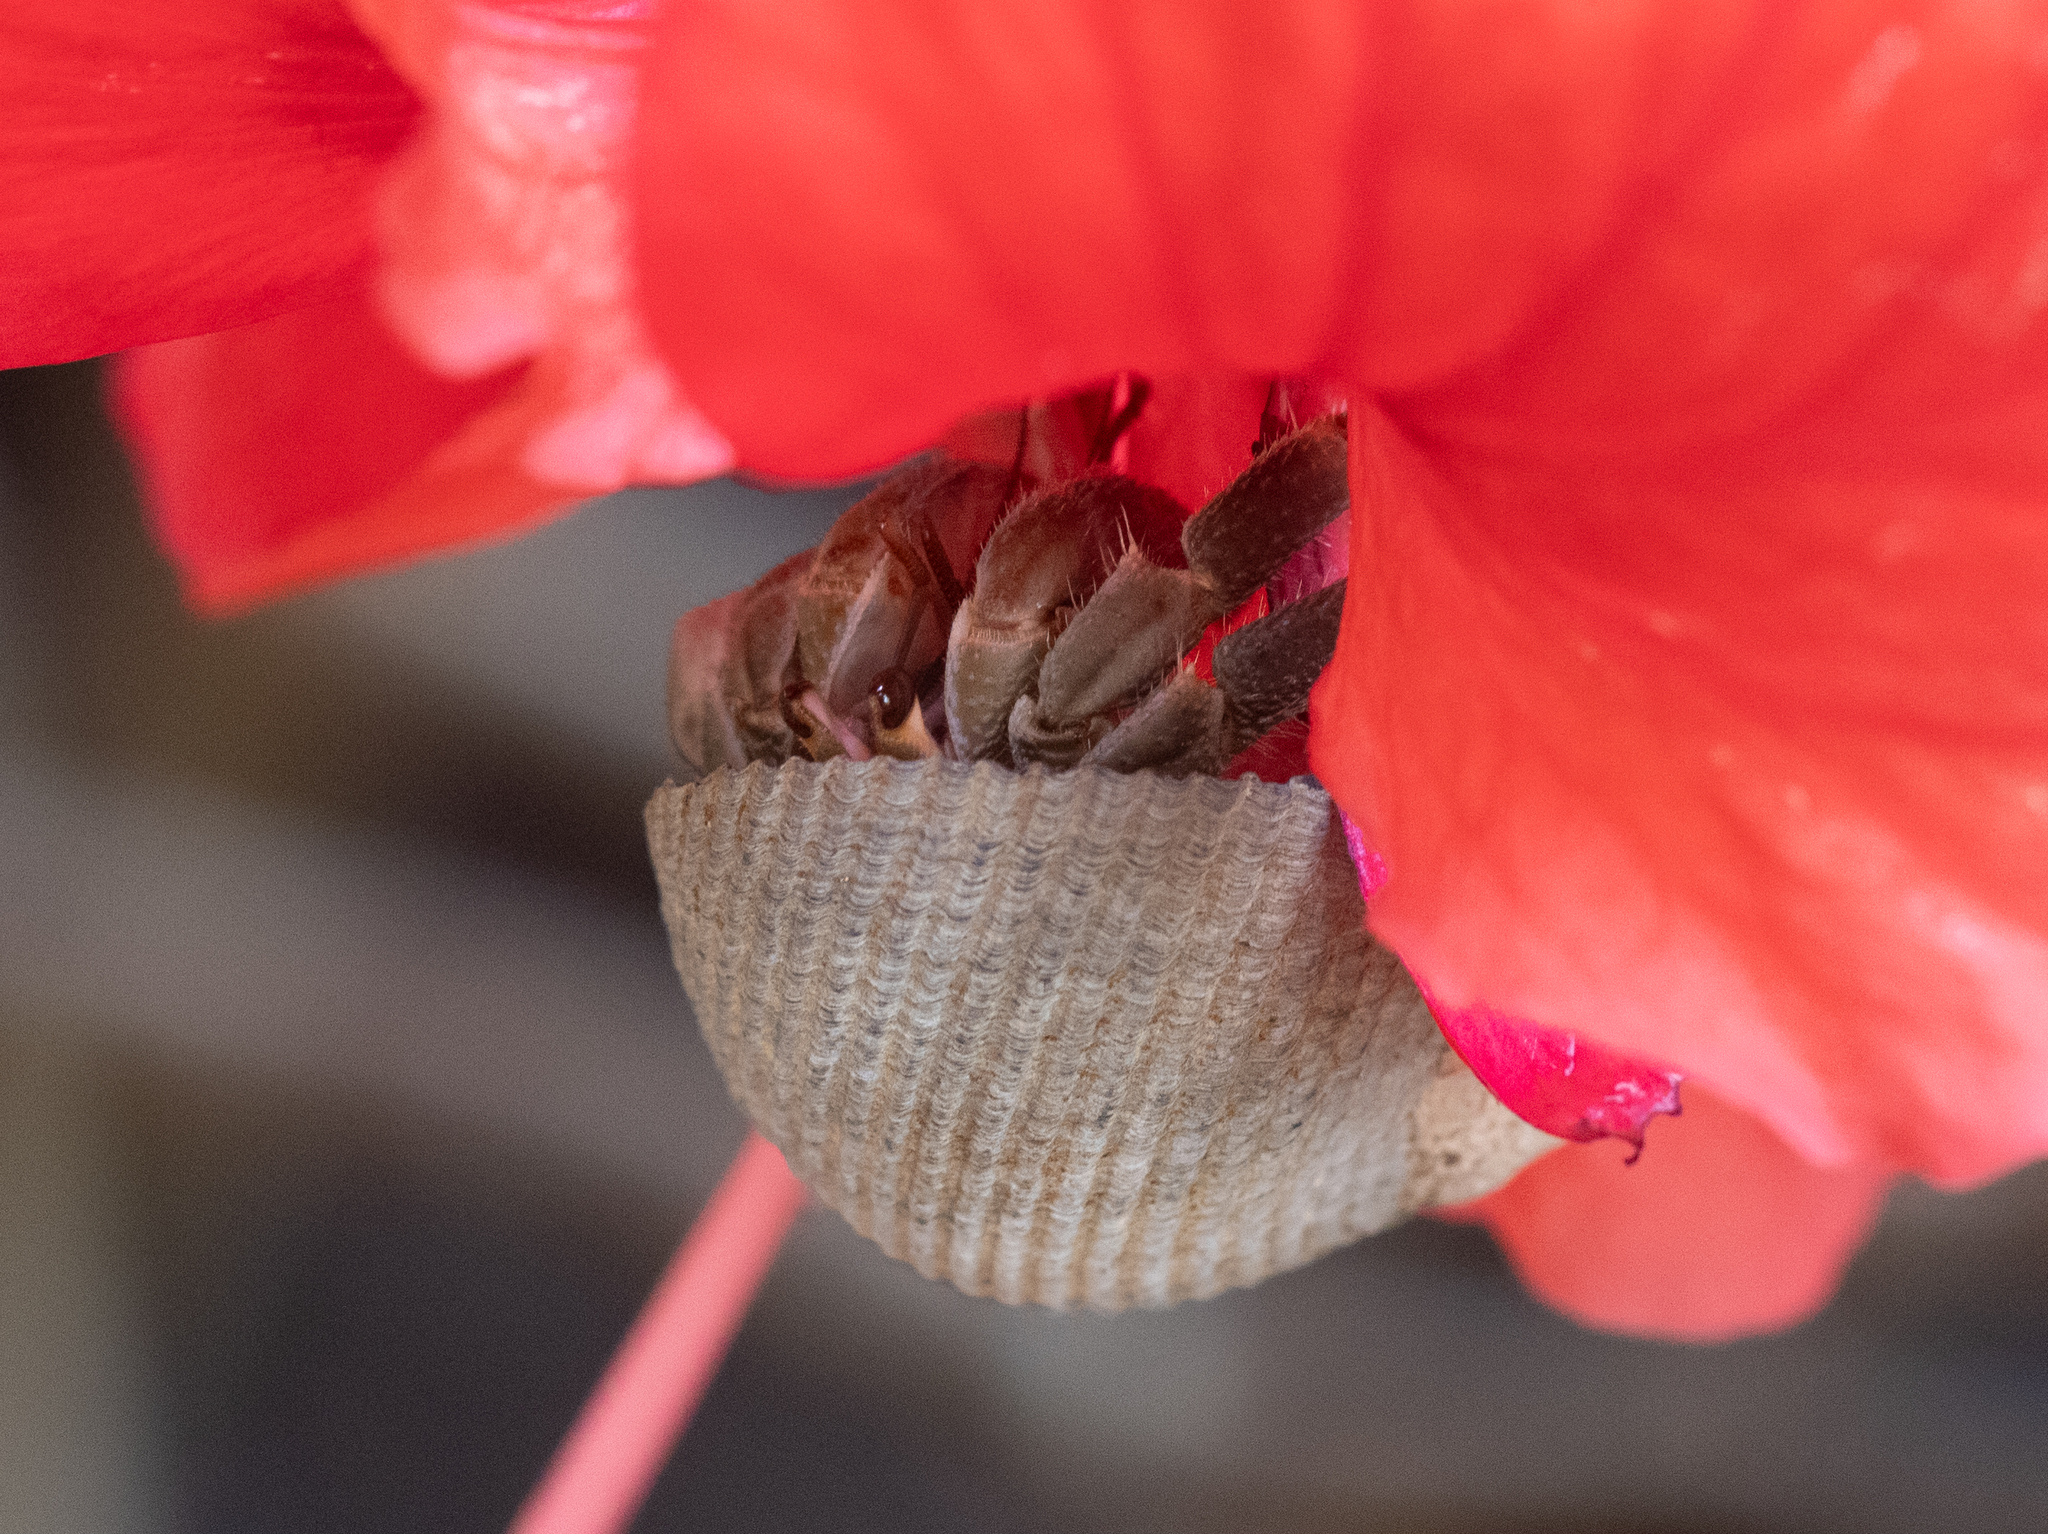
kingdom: Animalia
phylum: Arthropoda
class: Malacostraca
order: Decapoda
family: Coenobitidae
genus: Coenobita
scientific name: Coenobita compressus
